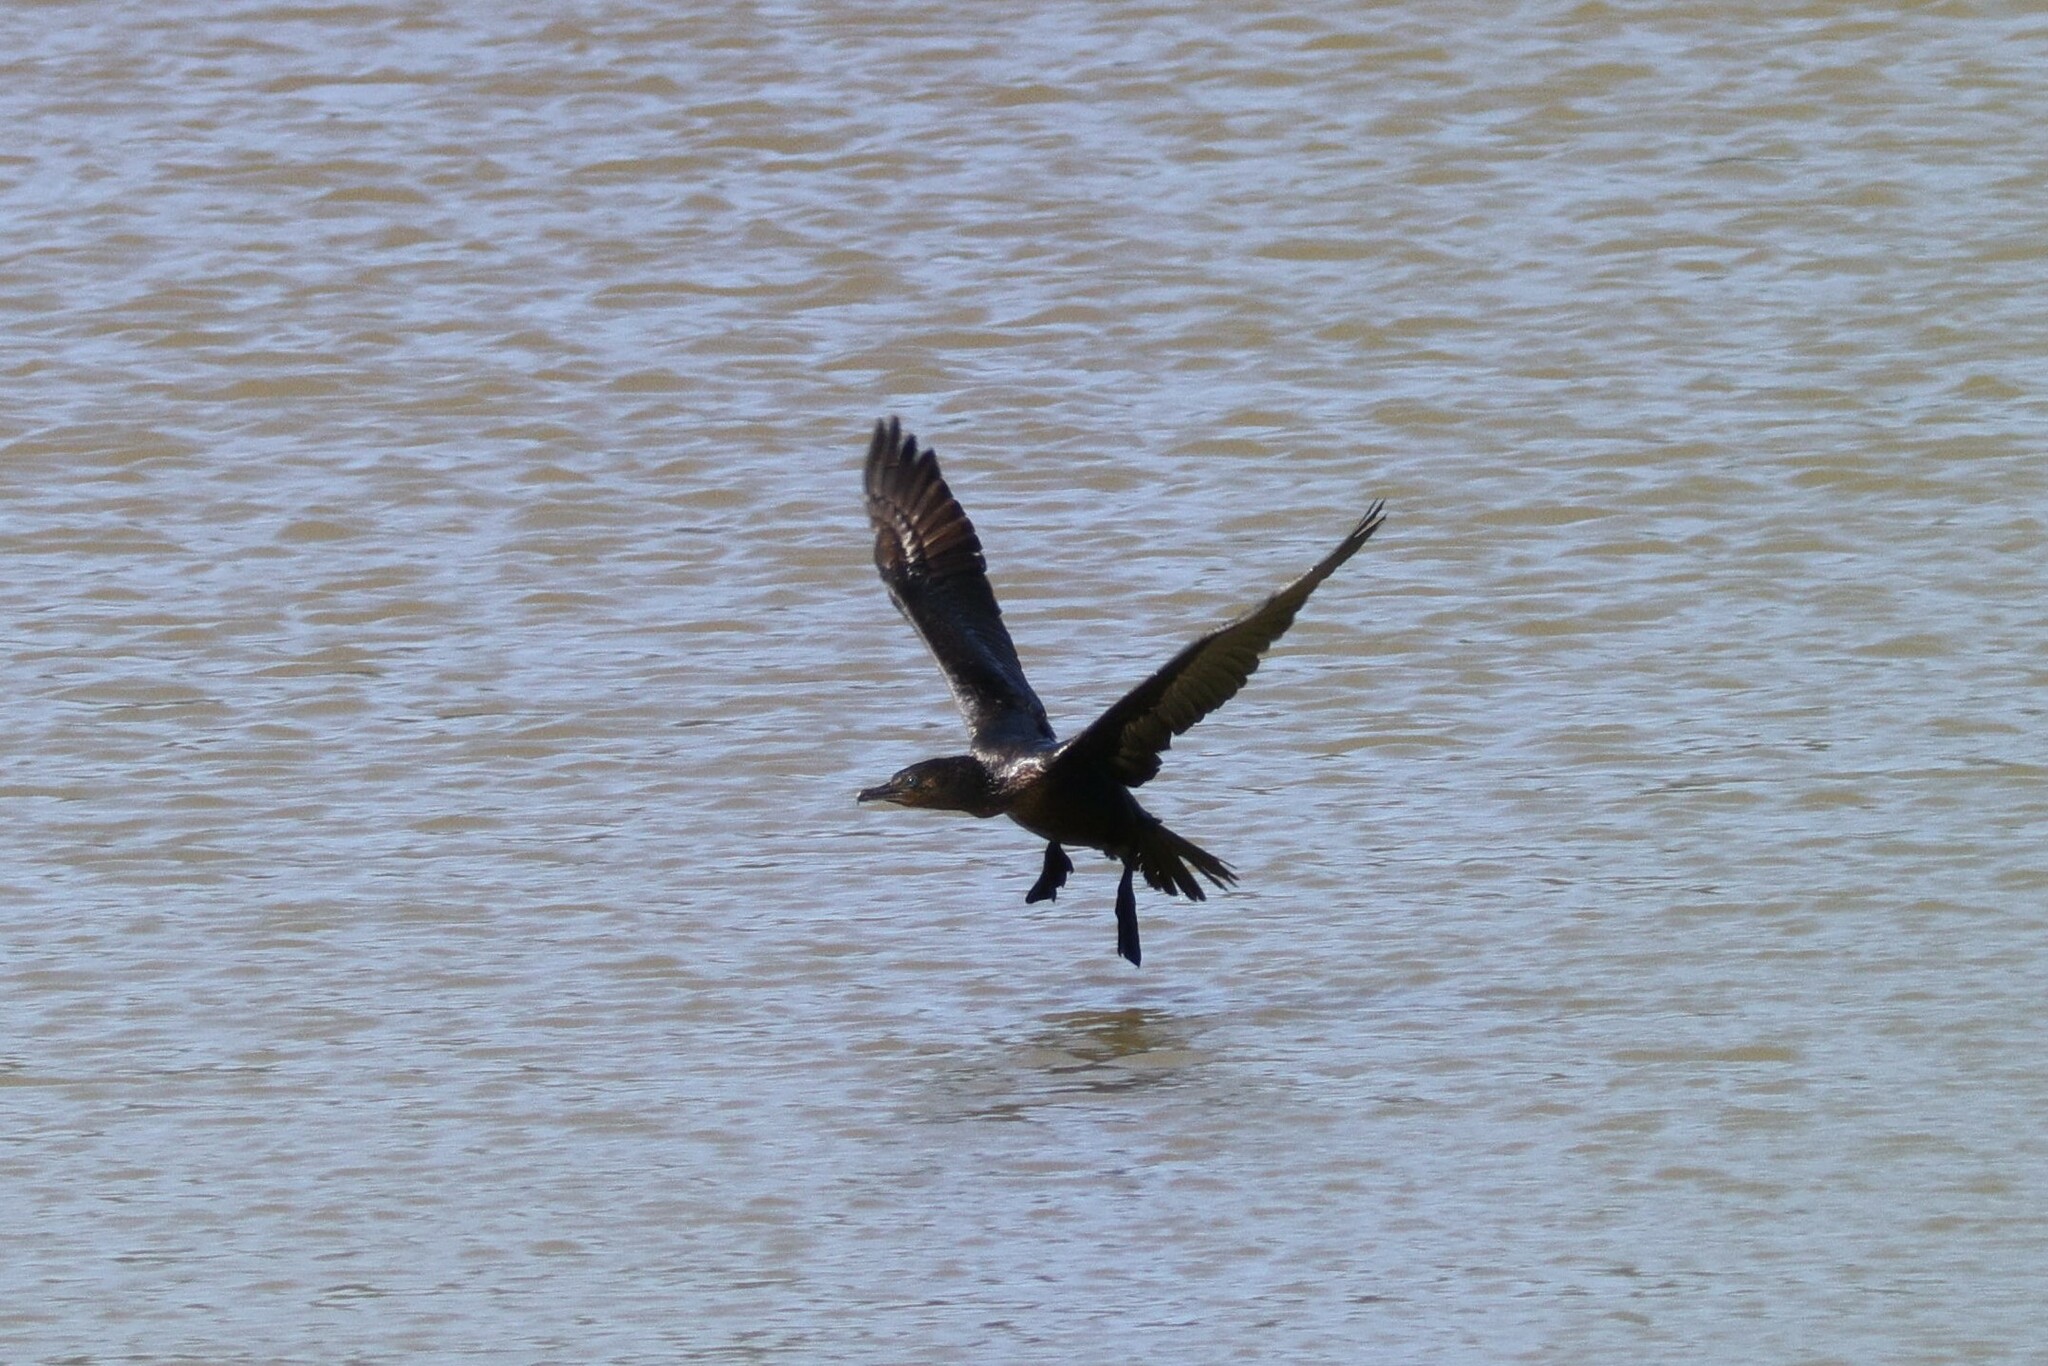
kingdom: Animalia
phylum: Chordata
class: Aves
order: Suliformes
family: Phalacrocoracidae
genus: Phalacrocorax
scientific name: Phalacrocorax brasilianus
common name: Neotropic cormorant
